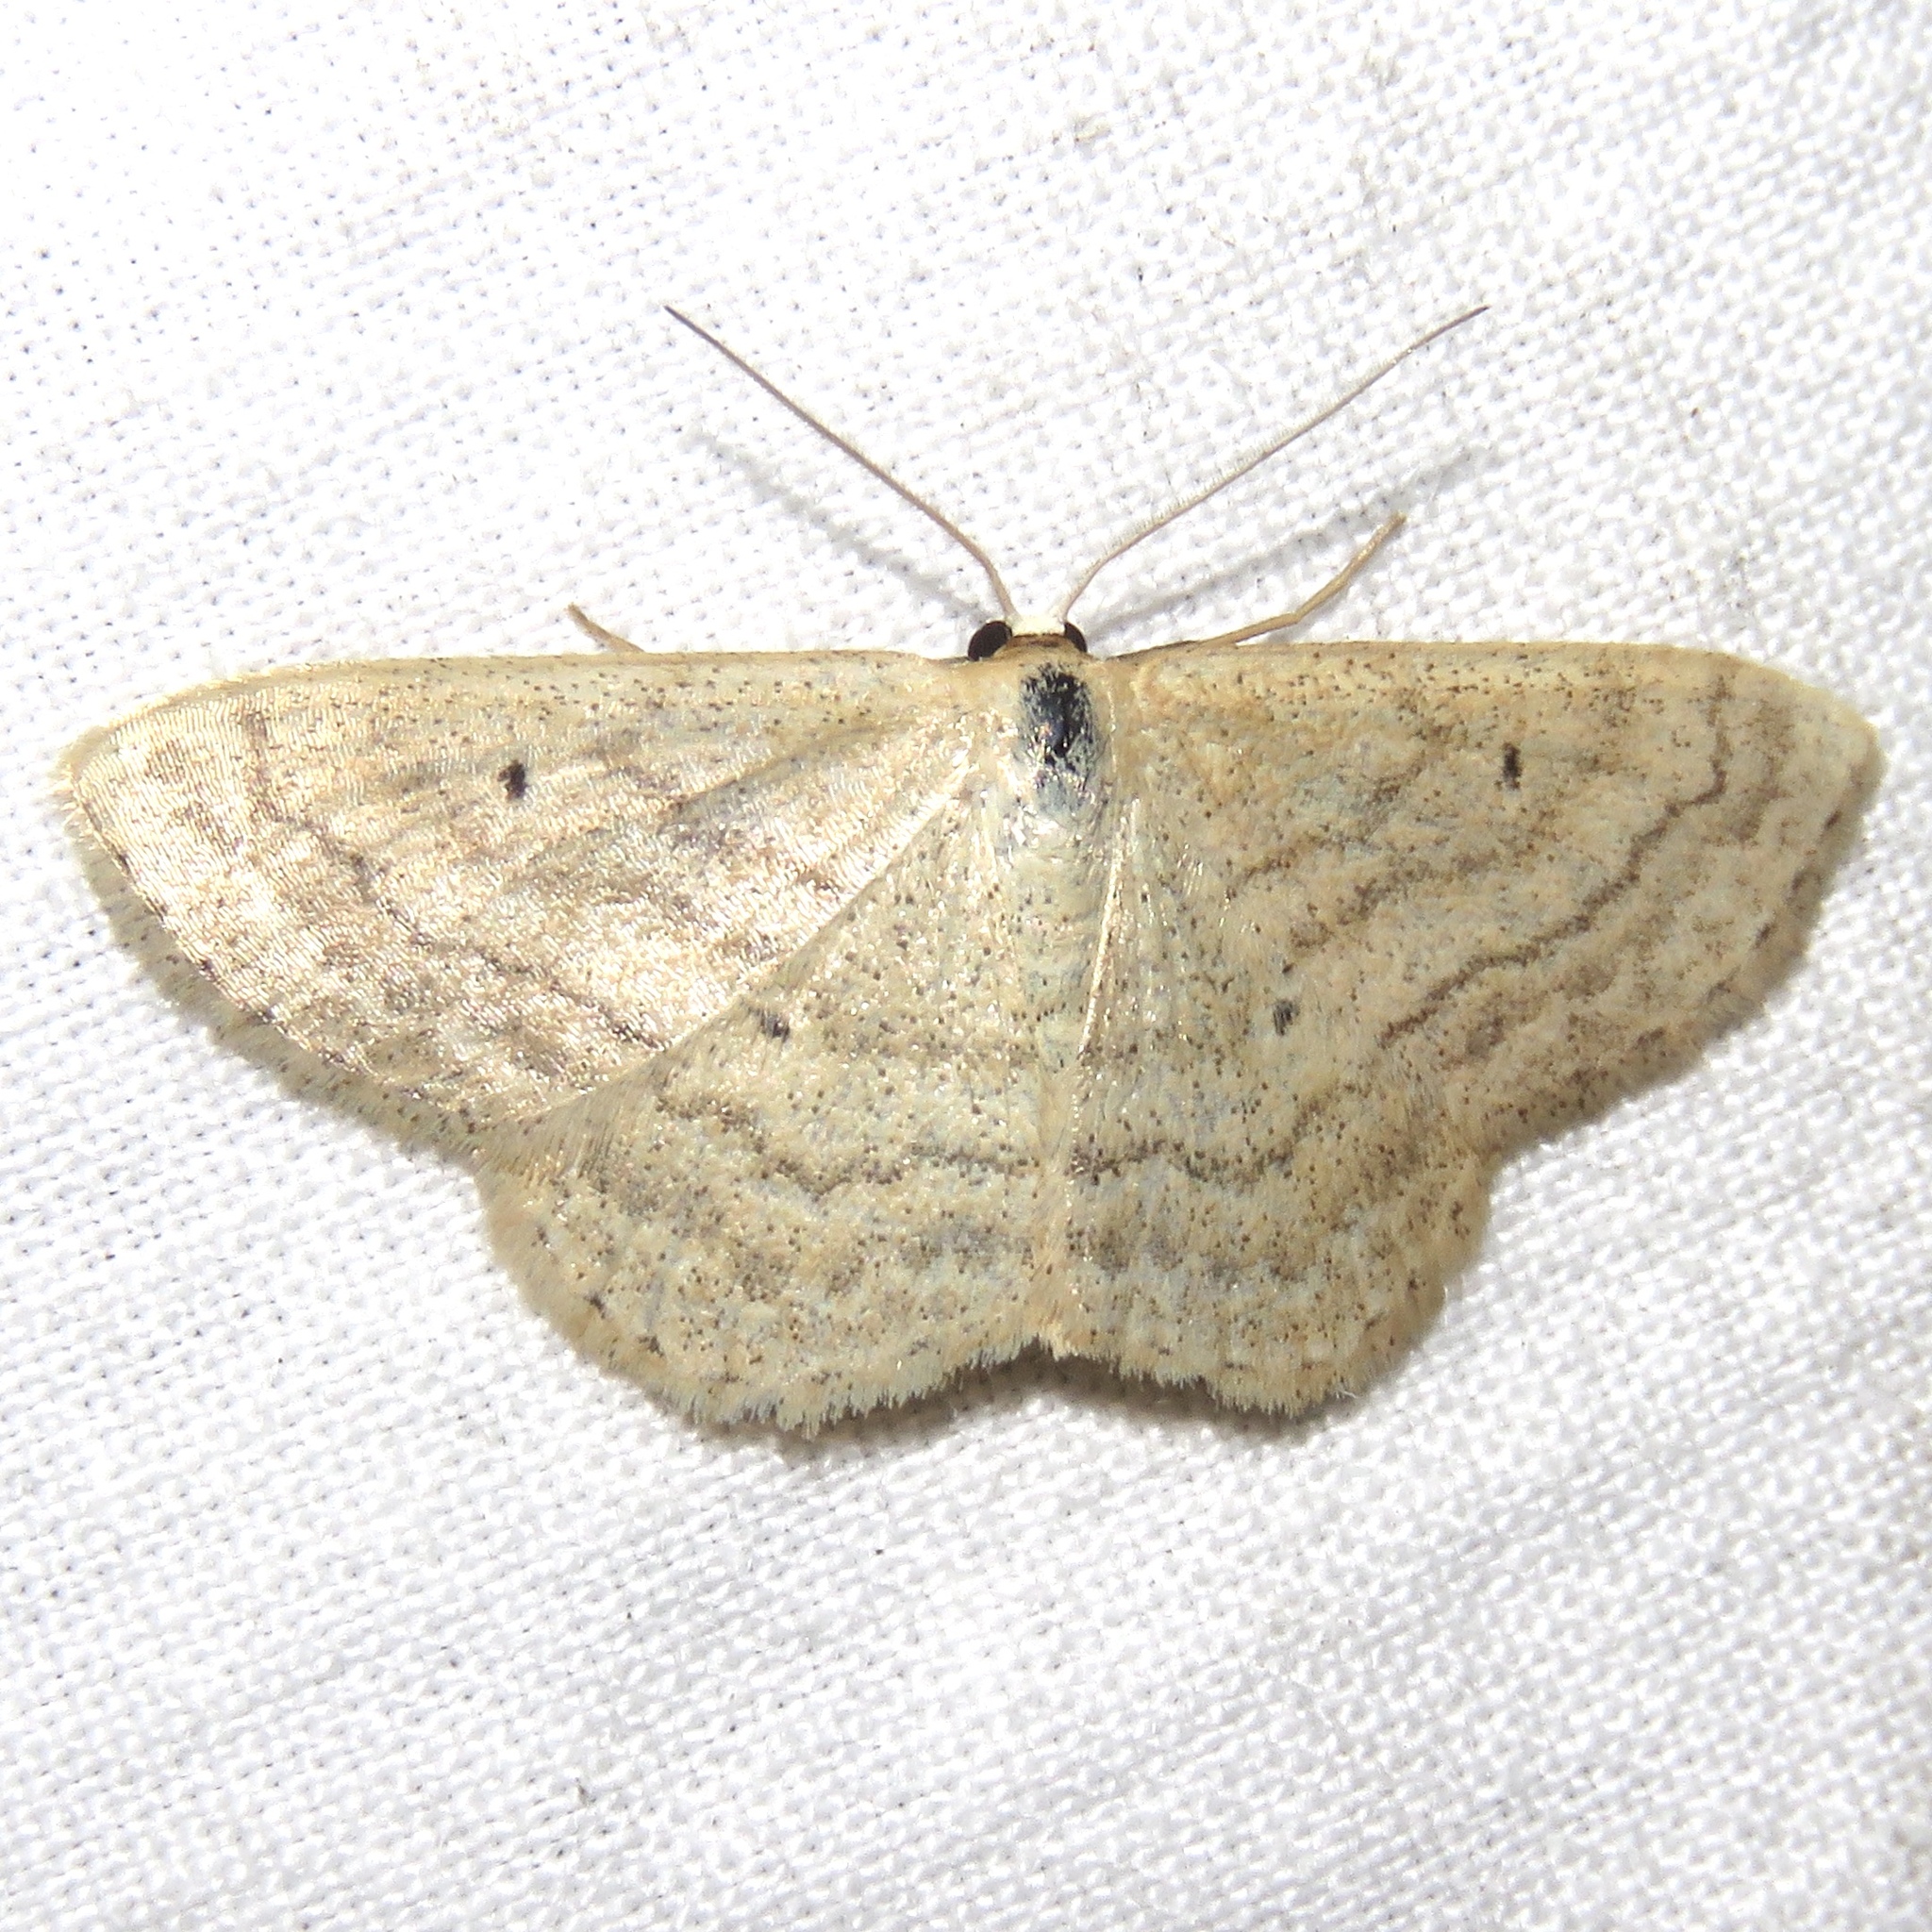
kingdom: Animalia
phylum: Arthropoda
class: Insecta
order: Lepidoptera
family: Geometridae
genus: Scopula
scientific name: Scopula inductata
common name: Soft-lined wave
